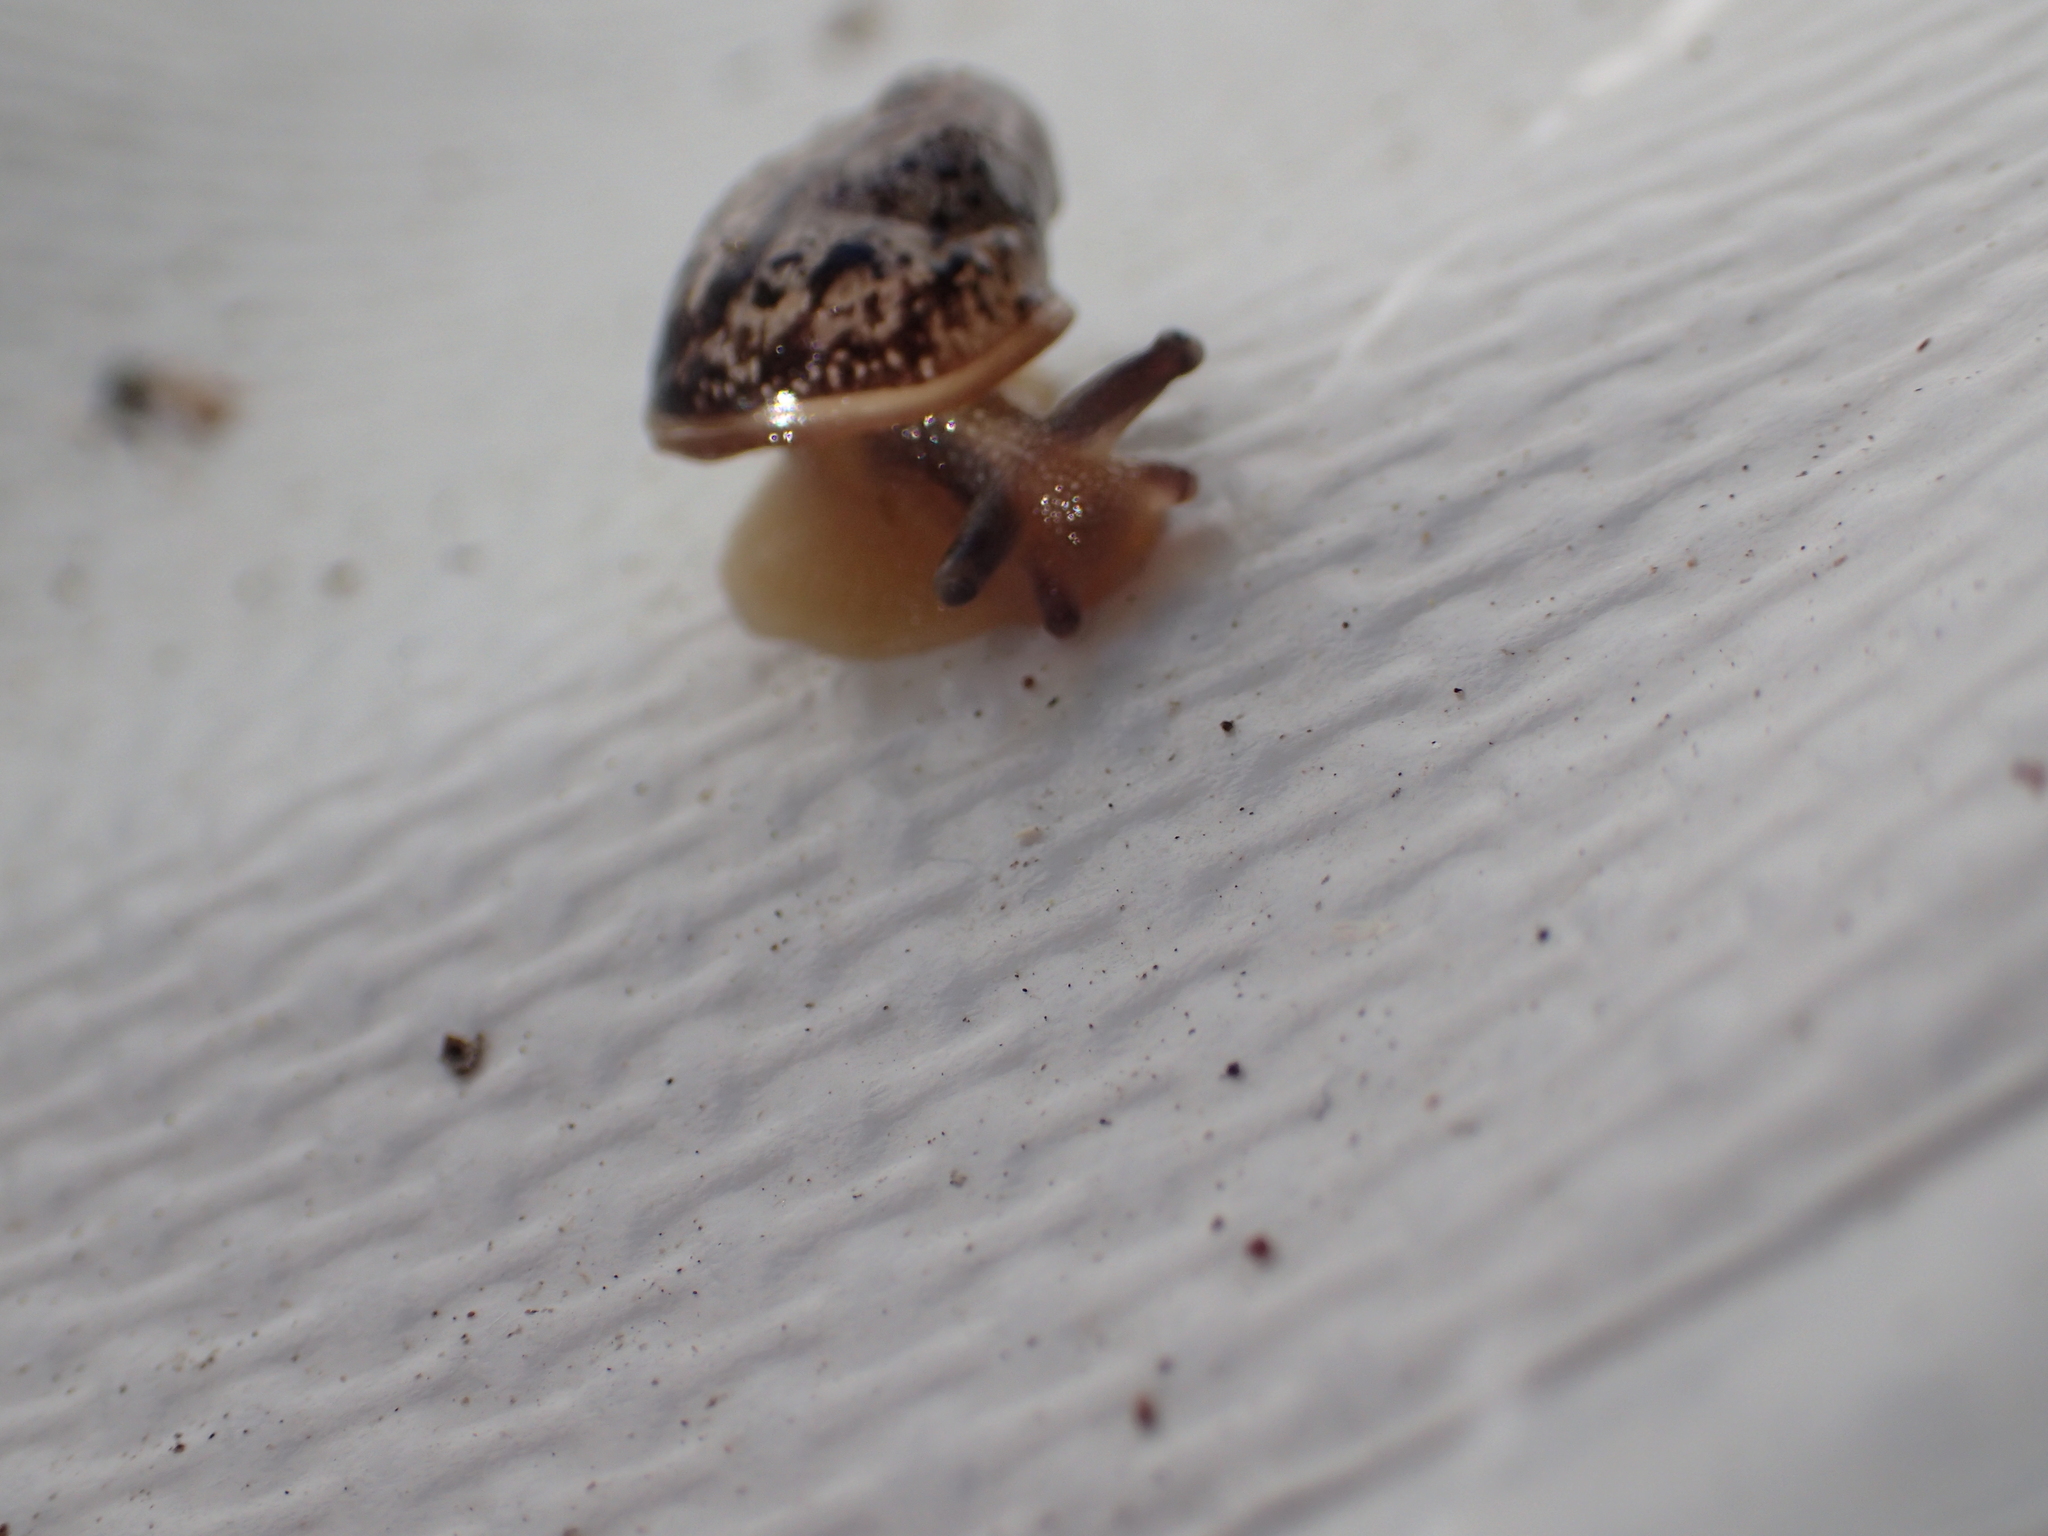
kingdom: Animalia
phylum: Mollusca
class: Gastropoda
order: Stylommatophora
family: Helicidae
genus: Cornu
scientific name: Cornu aspersum
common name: Brown garden snail
